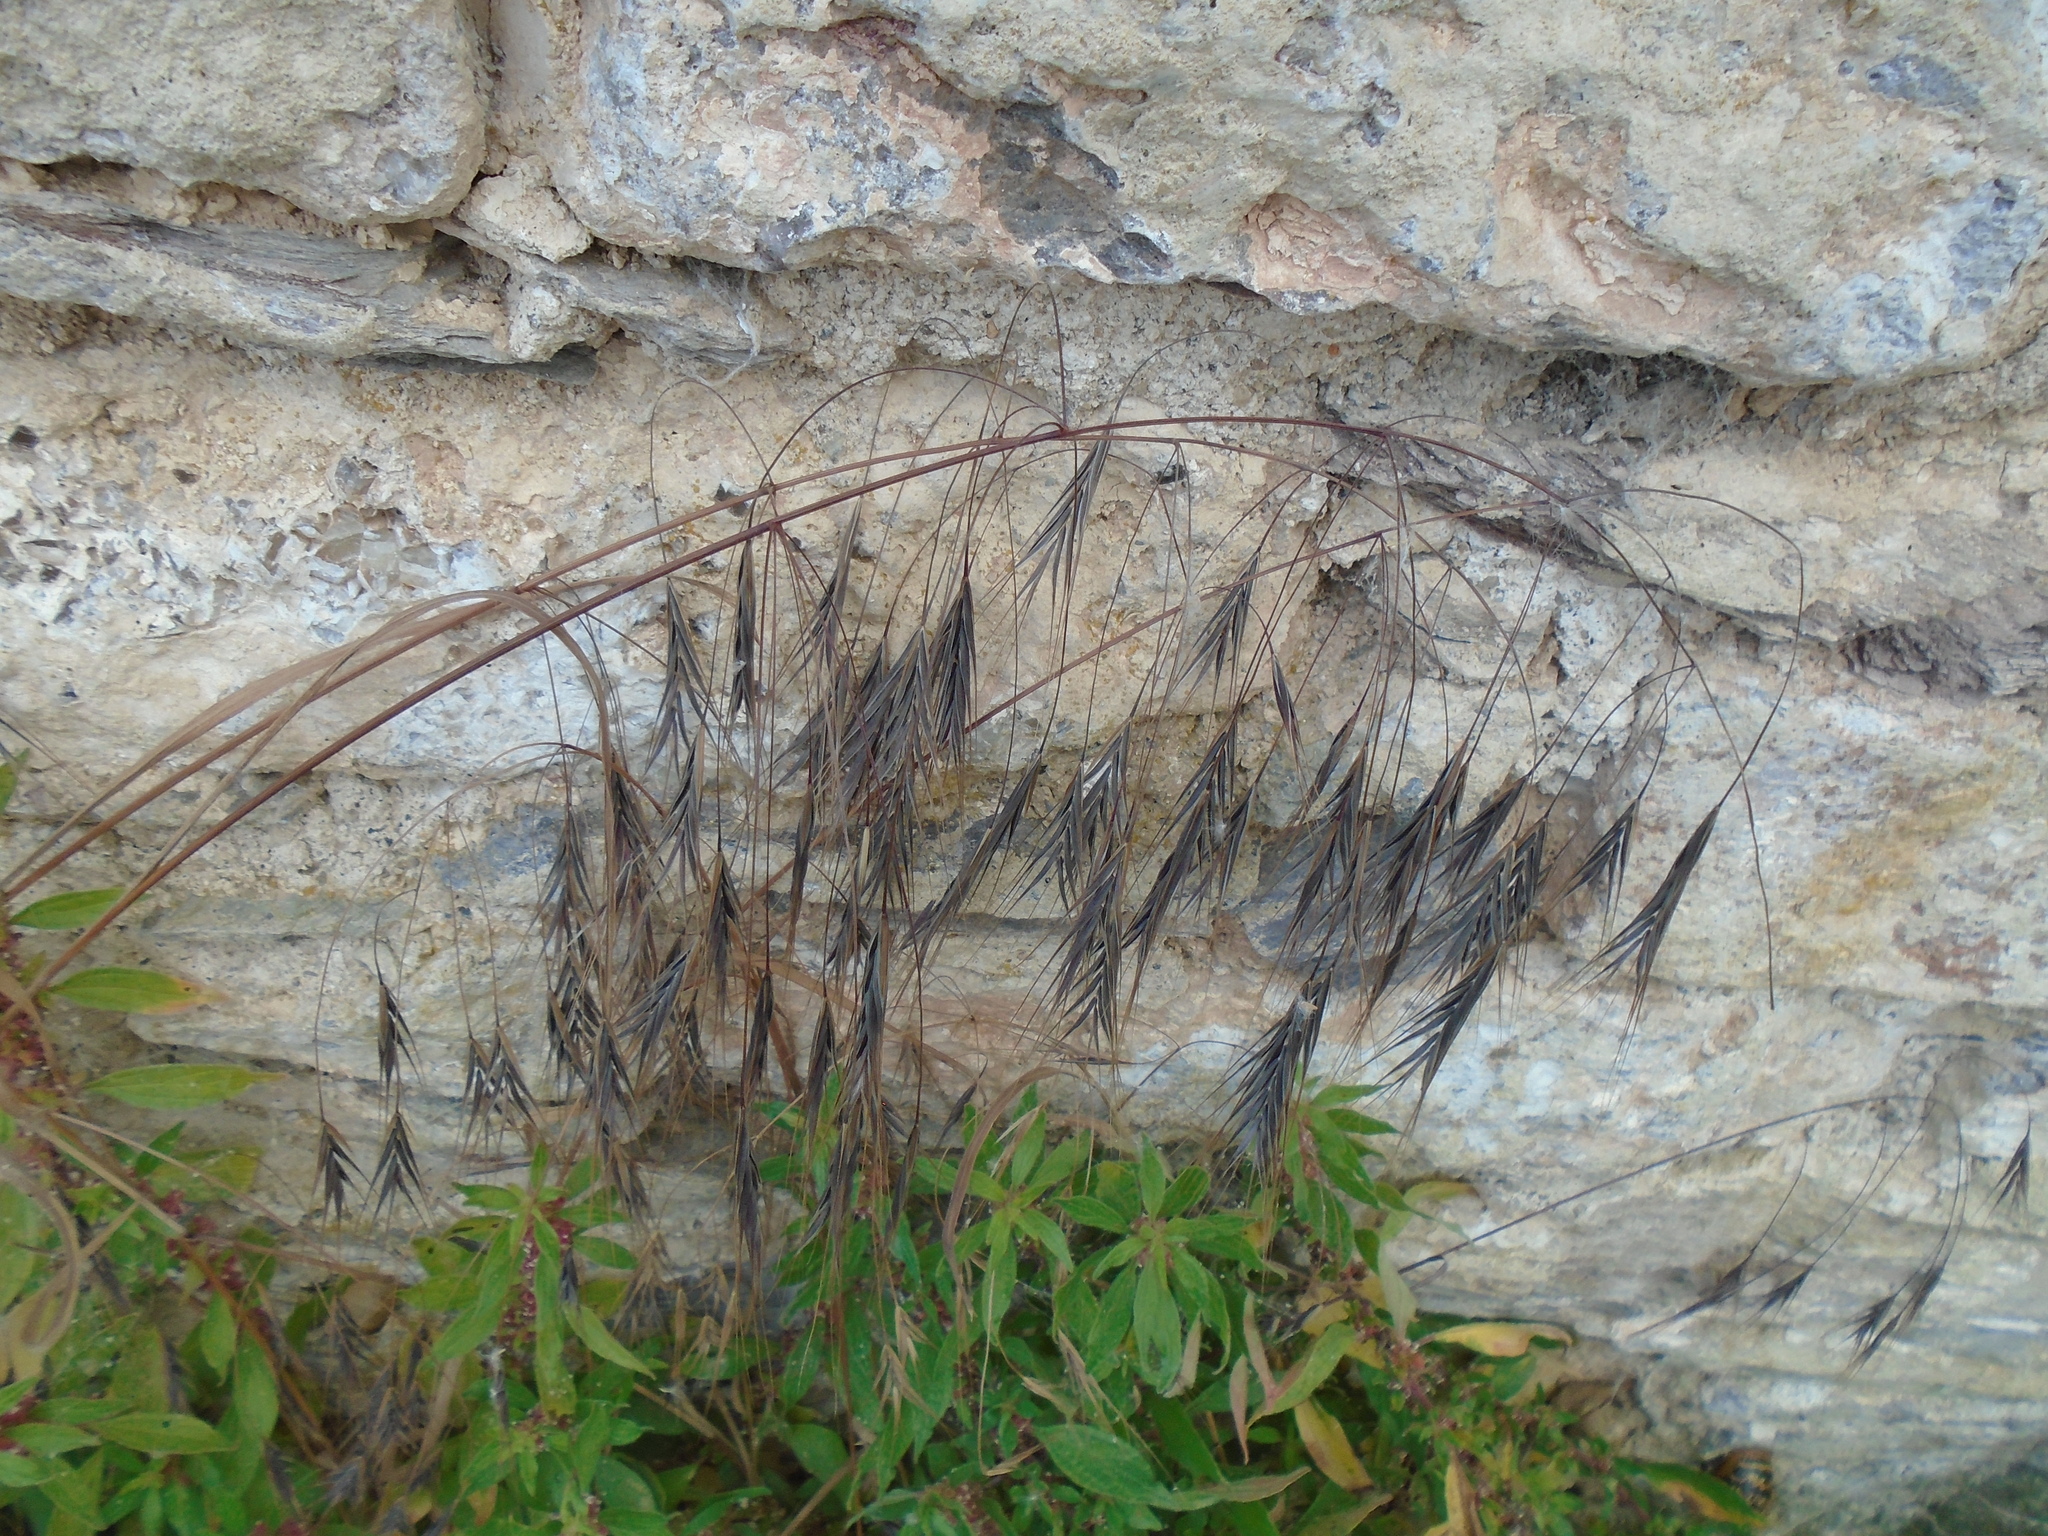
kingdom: Plantae
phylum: Tracheophyta
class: Liliopsida
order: Poales
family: Poaceae
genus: Bromus
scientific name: Bromus sterilis
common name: Poverty brome
